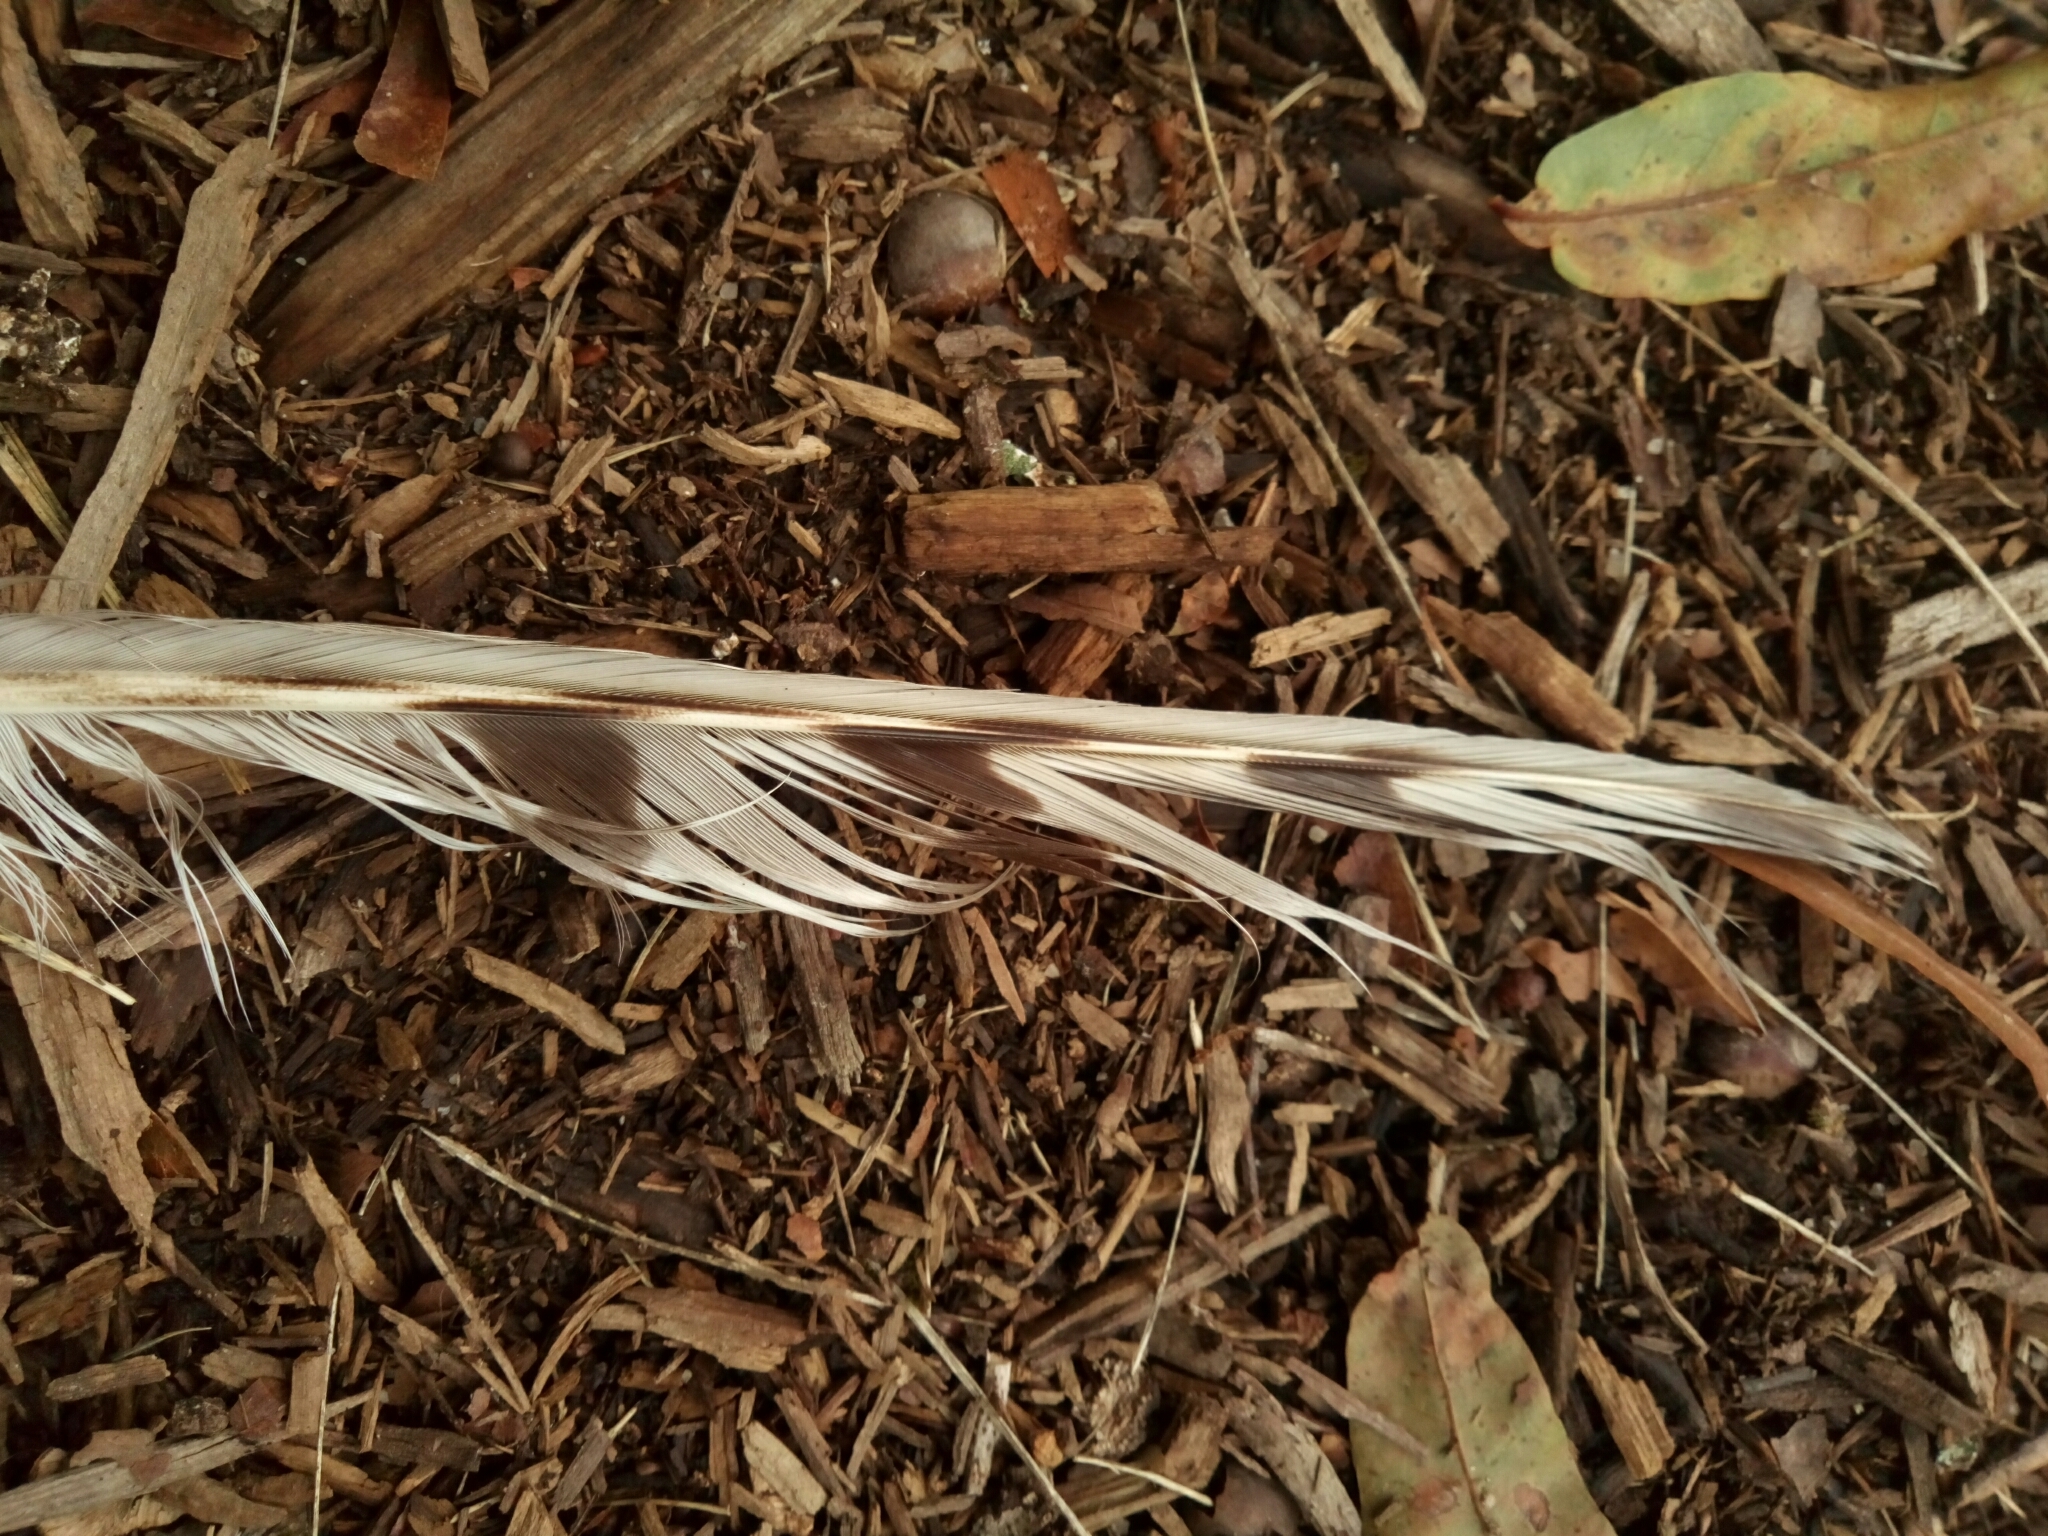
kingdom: Animalia
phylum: Chordata
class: Aves
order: Accipitriformes
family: Accipitridae
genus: Accipiter
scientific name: Accipiter cooperii
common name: Cooper's hawk
